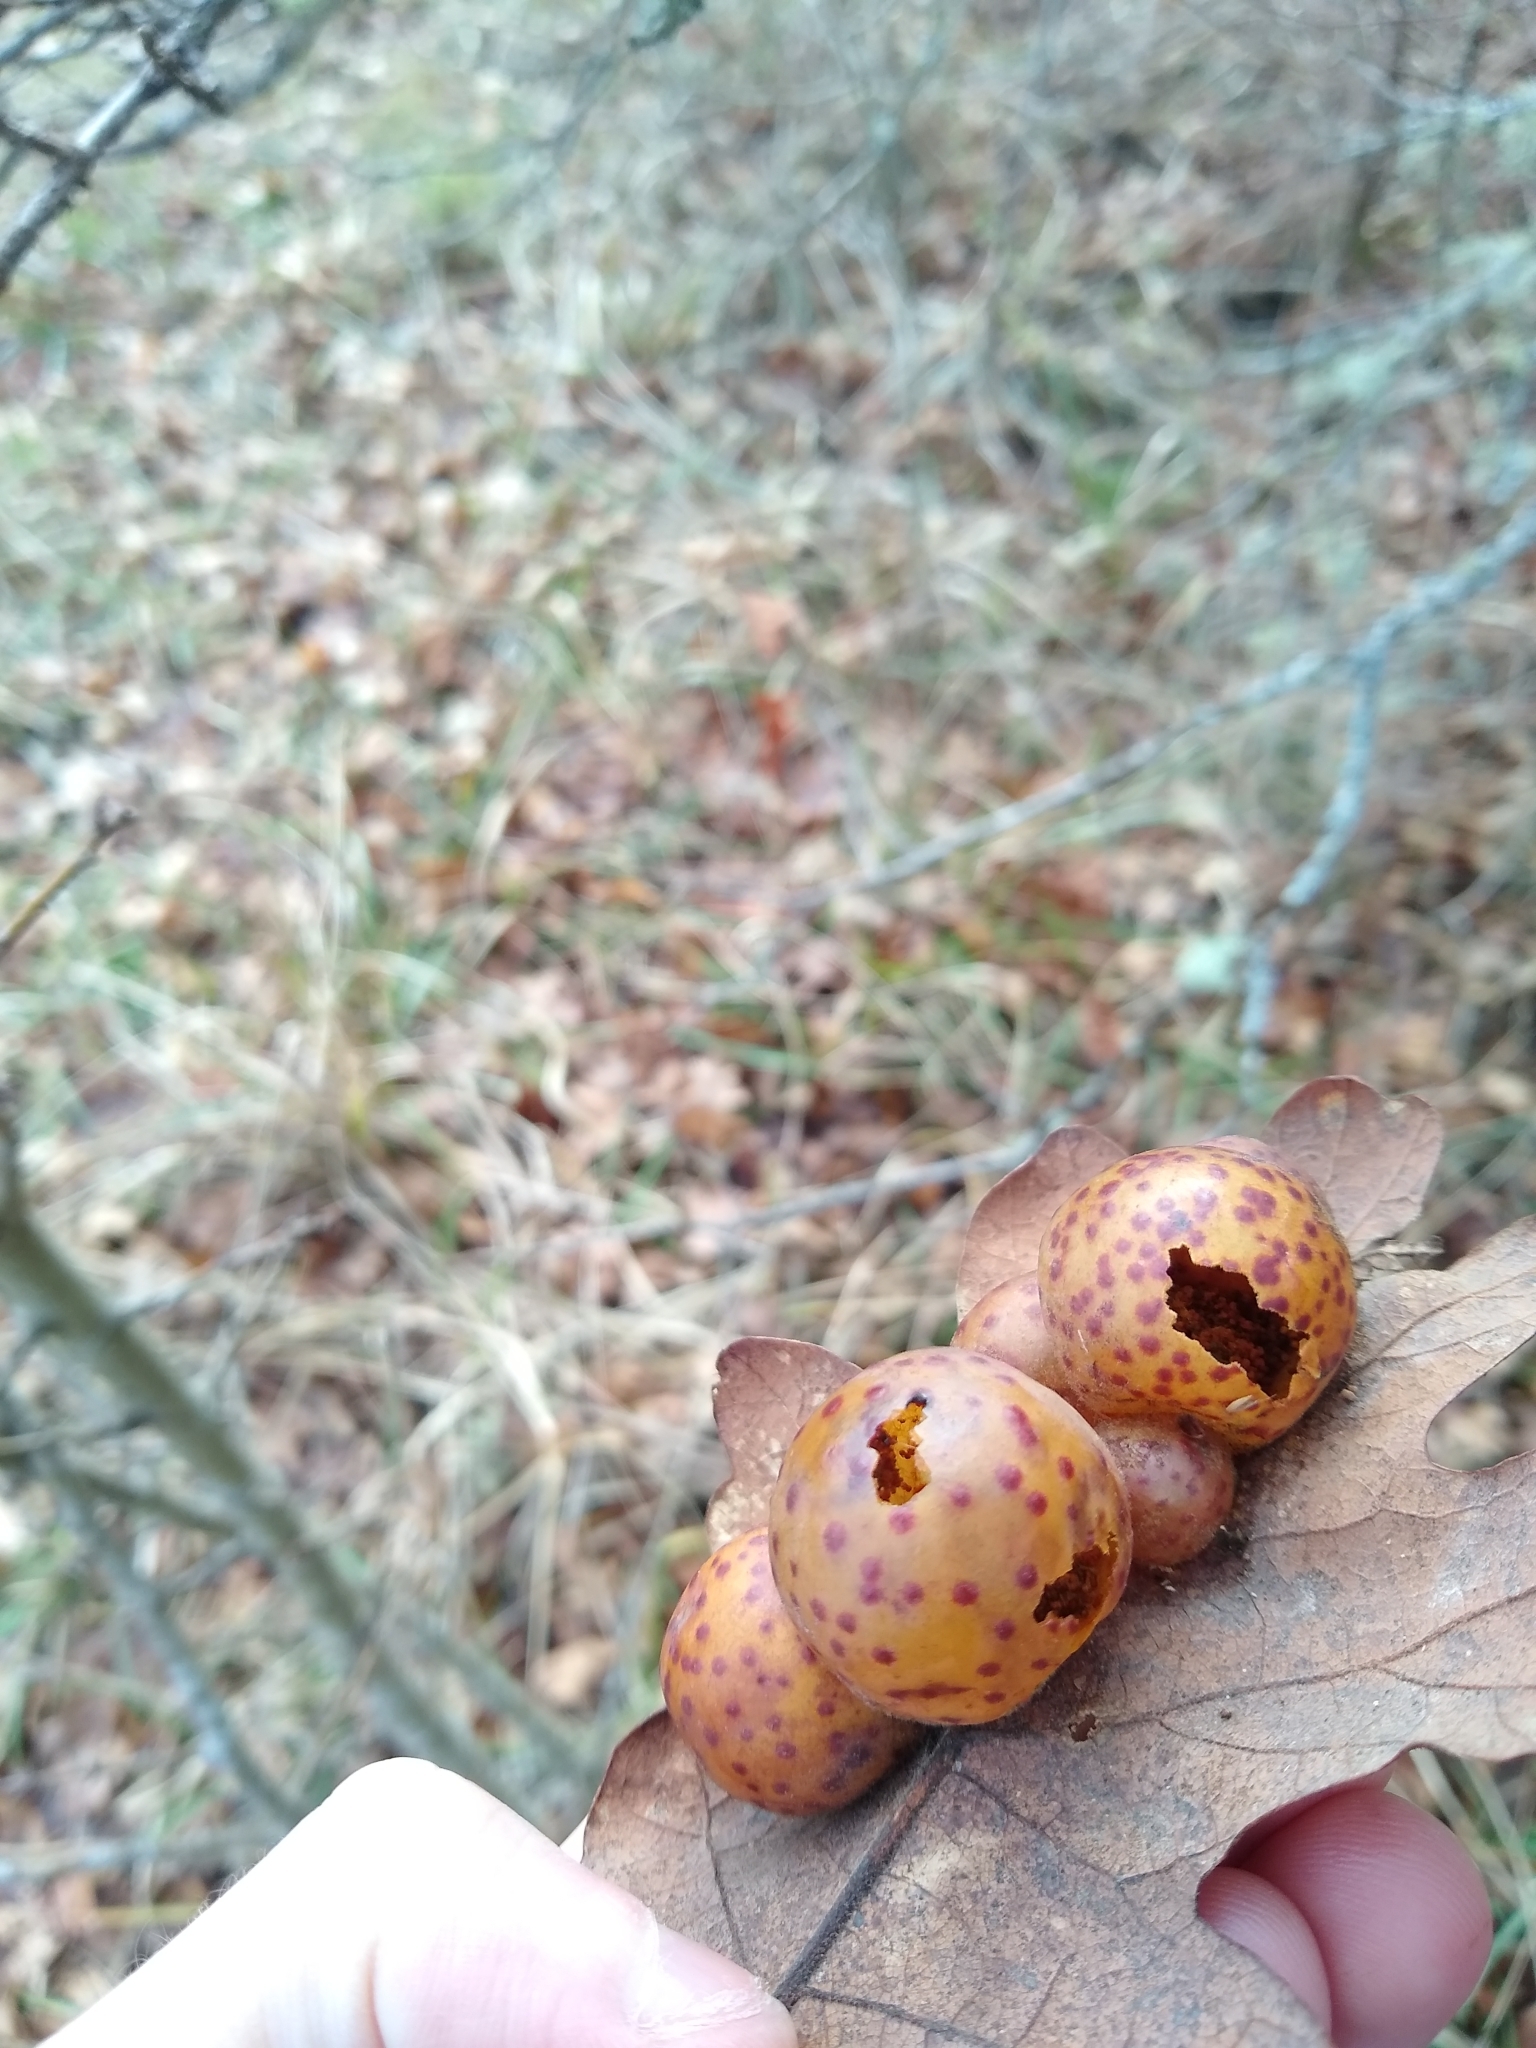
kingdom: Animalia
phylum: Arthropoda
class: Insecta
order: Hymenoptera
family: Cynipidae
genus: Cynips
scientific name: Cynips
